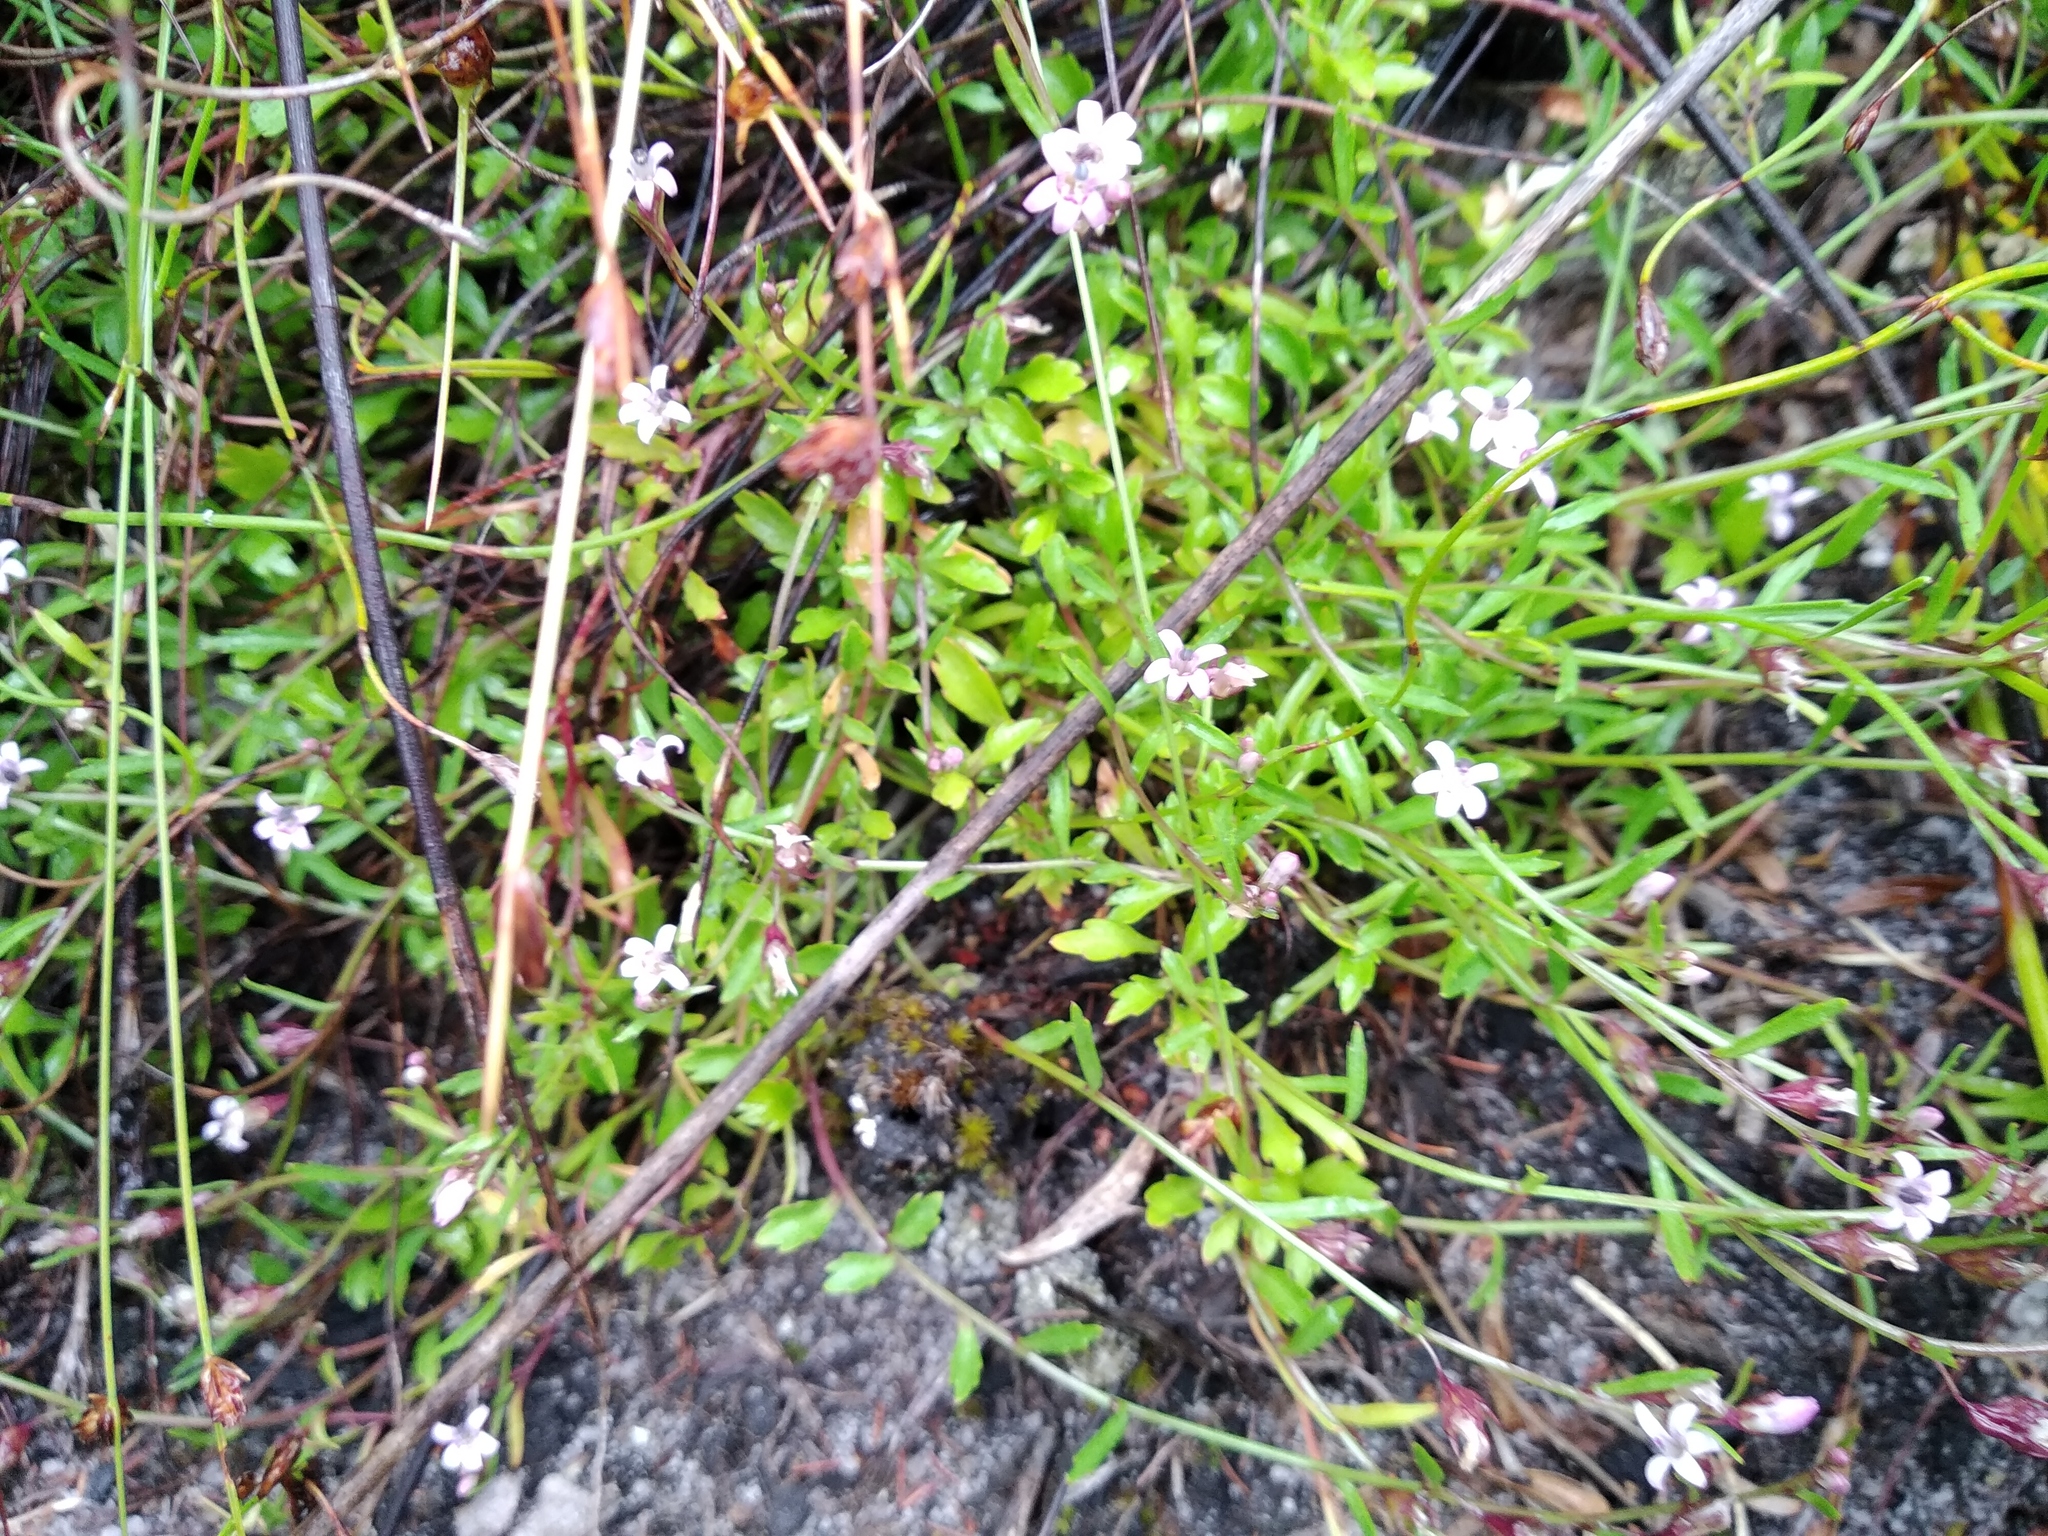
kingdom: Plantae
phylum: Tracheophyta
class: Magnoliopsida
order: Asterales
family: Campanulaceae
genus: Lobelia
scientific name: Lobelia eckloniana
